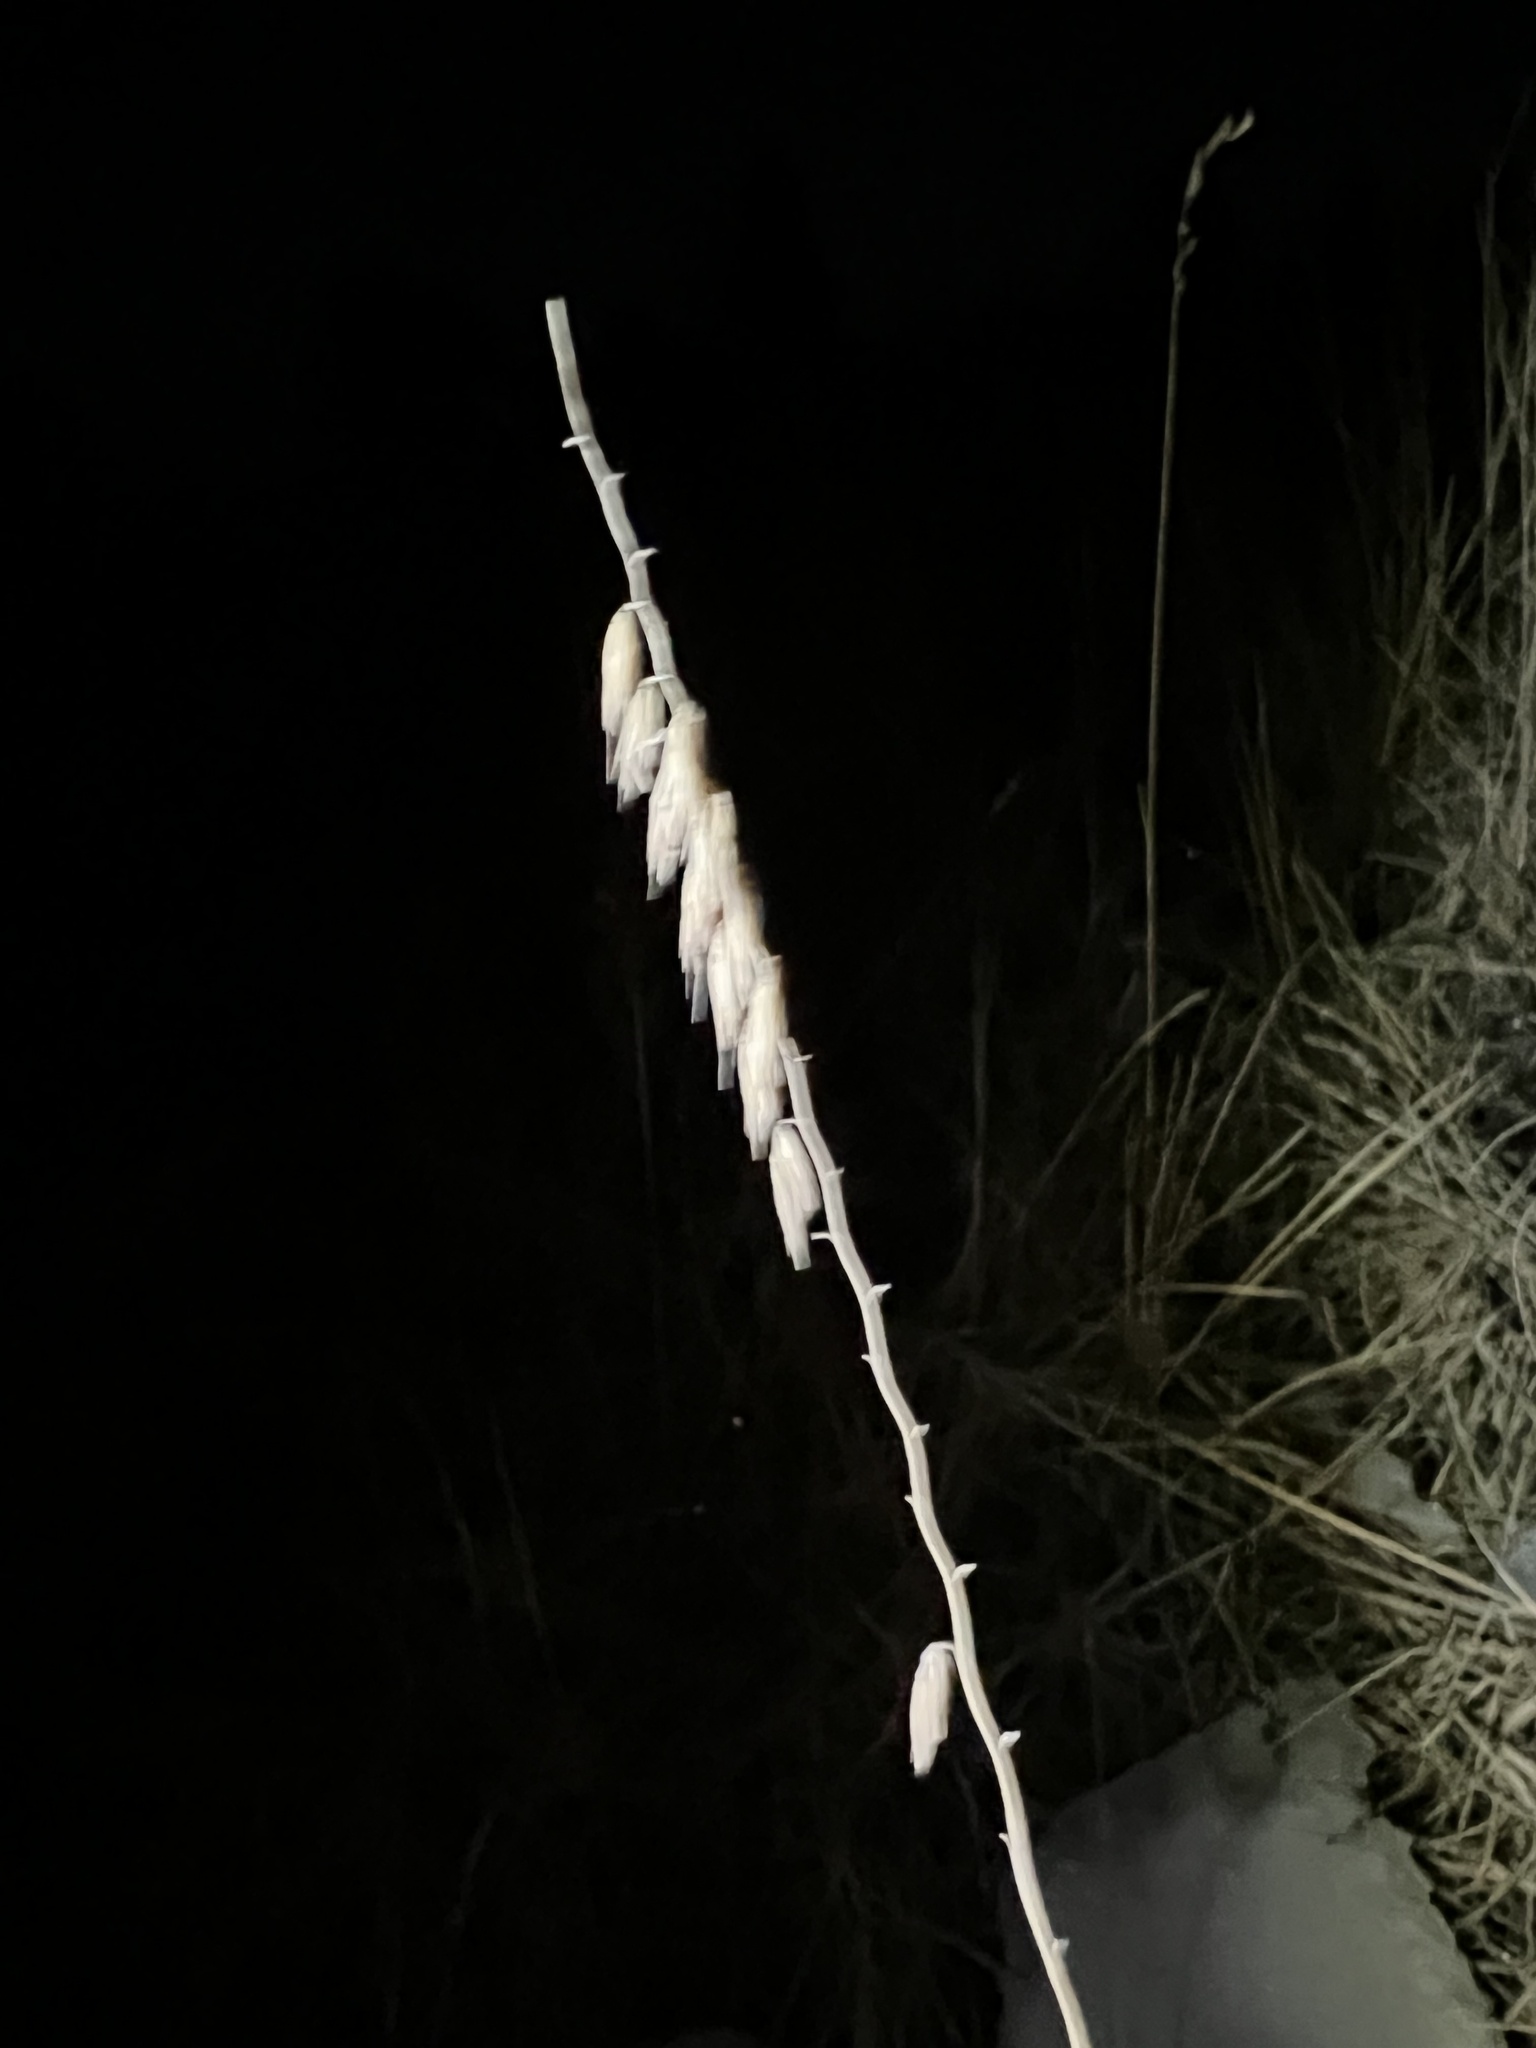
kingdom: Plantae
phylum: Tracheophyta
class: Liliopsida
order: Poales
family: Poaceae
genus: Bouteloua
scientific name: Bouteloua curtipendula
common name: Side-oats grama
